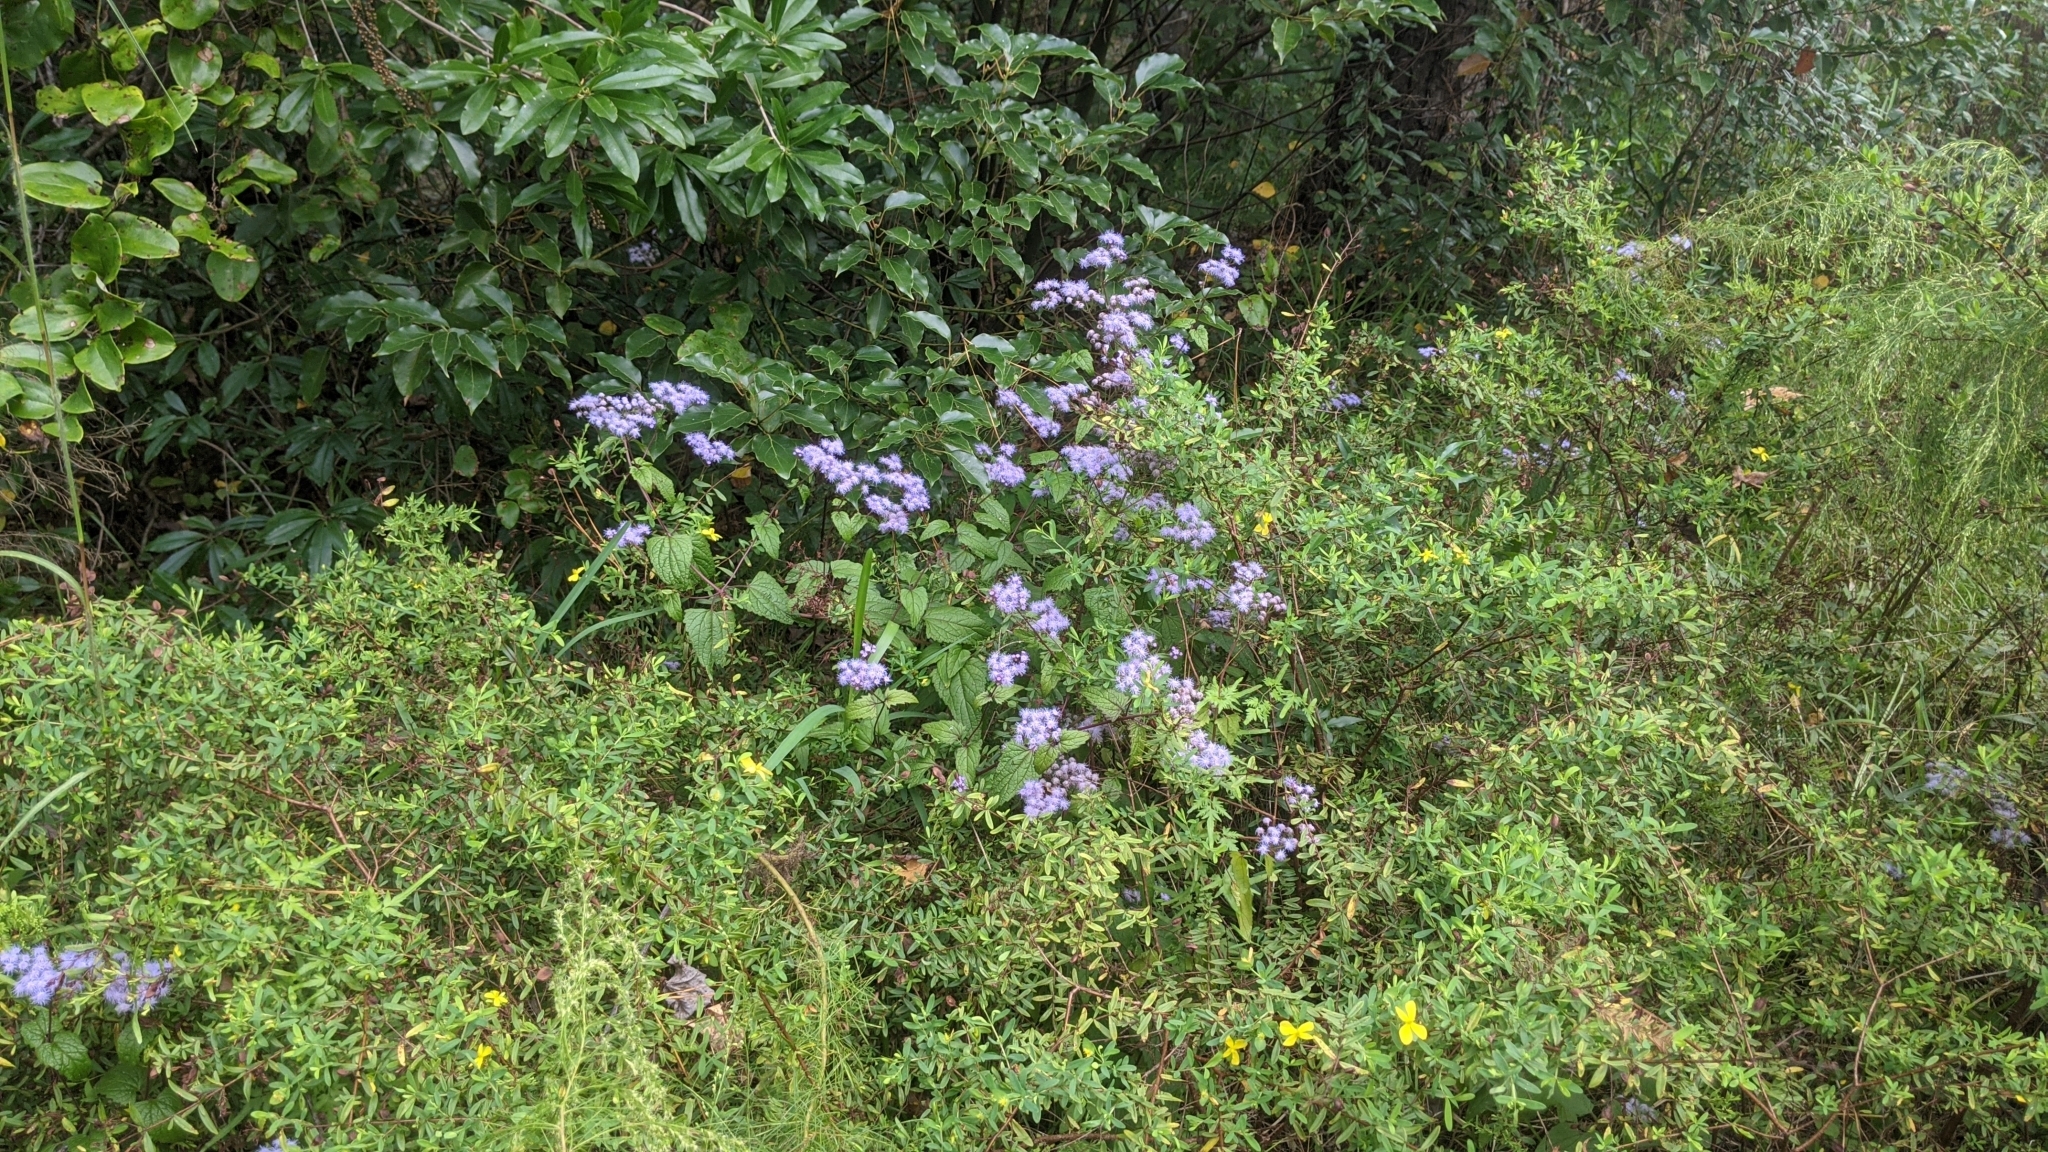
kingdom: Plantae
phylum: Tracheophyta
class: Magnoliopsida
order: Asterales
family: Asteraceae
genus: Conoclinium
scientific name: Conoclinium coelestinum
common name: Blue mistflower
